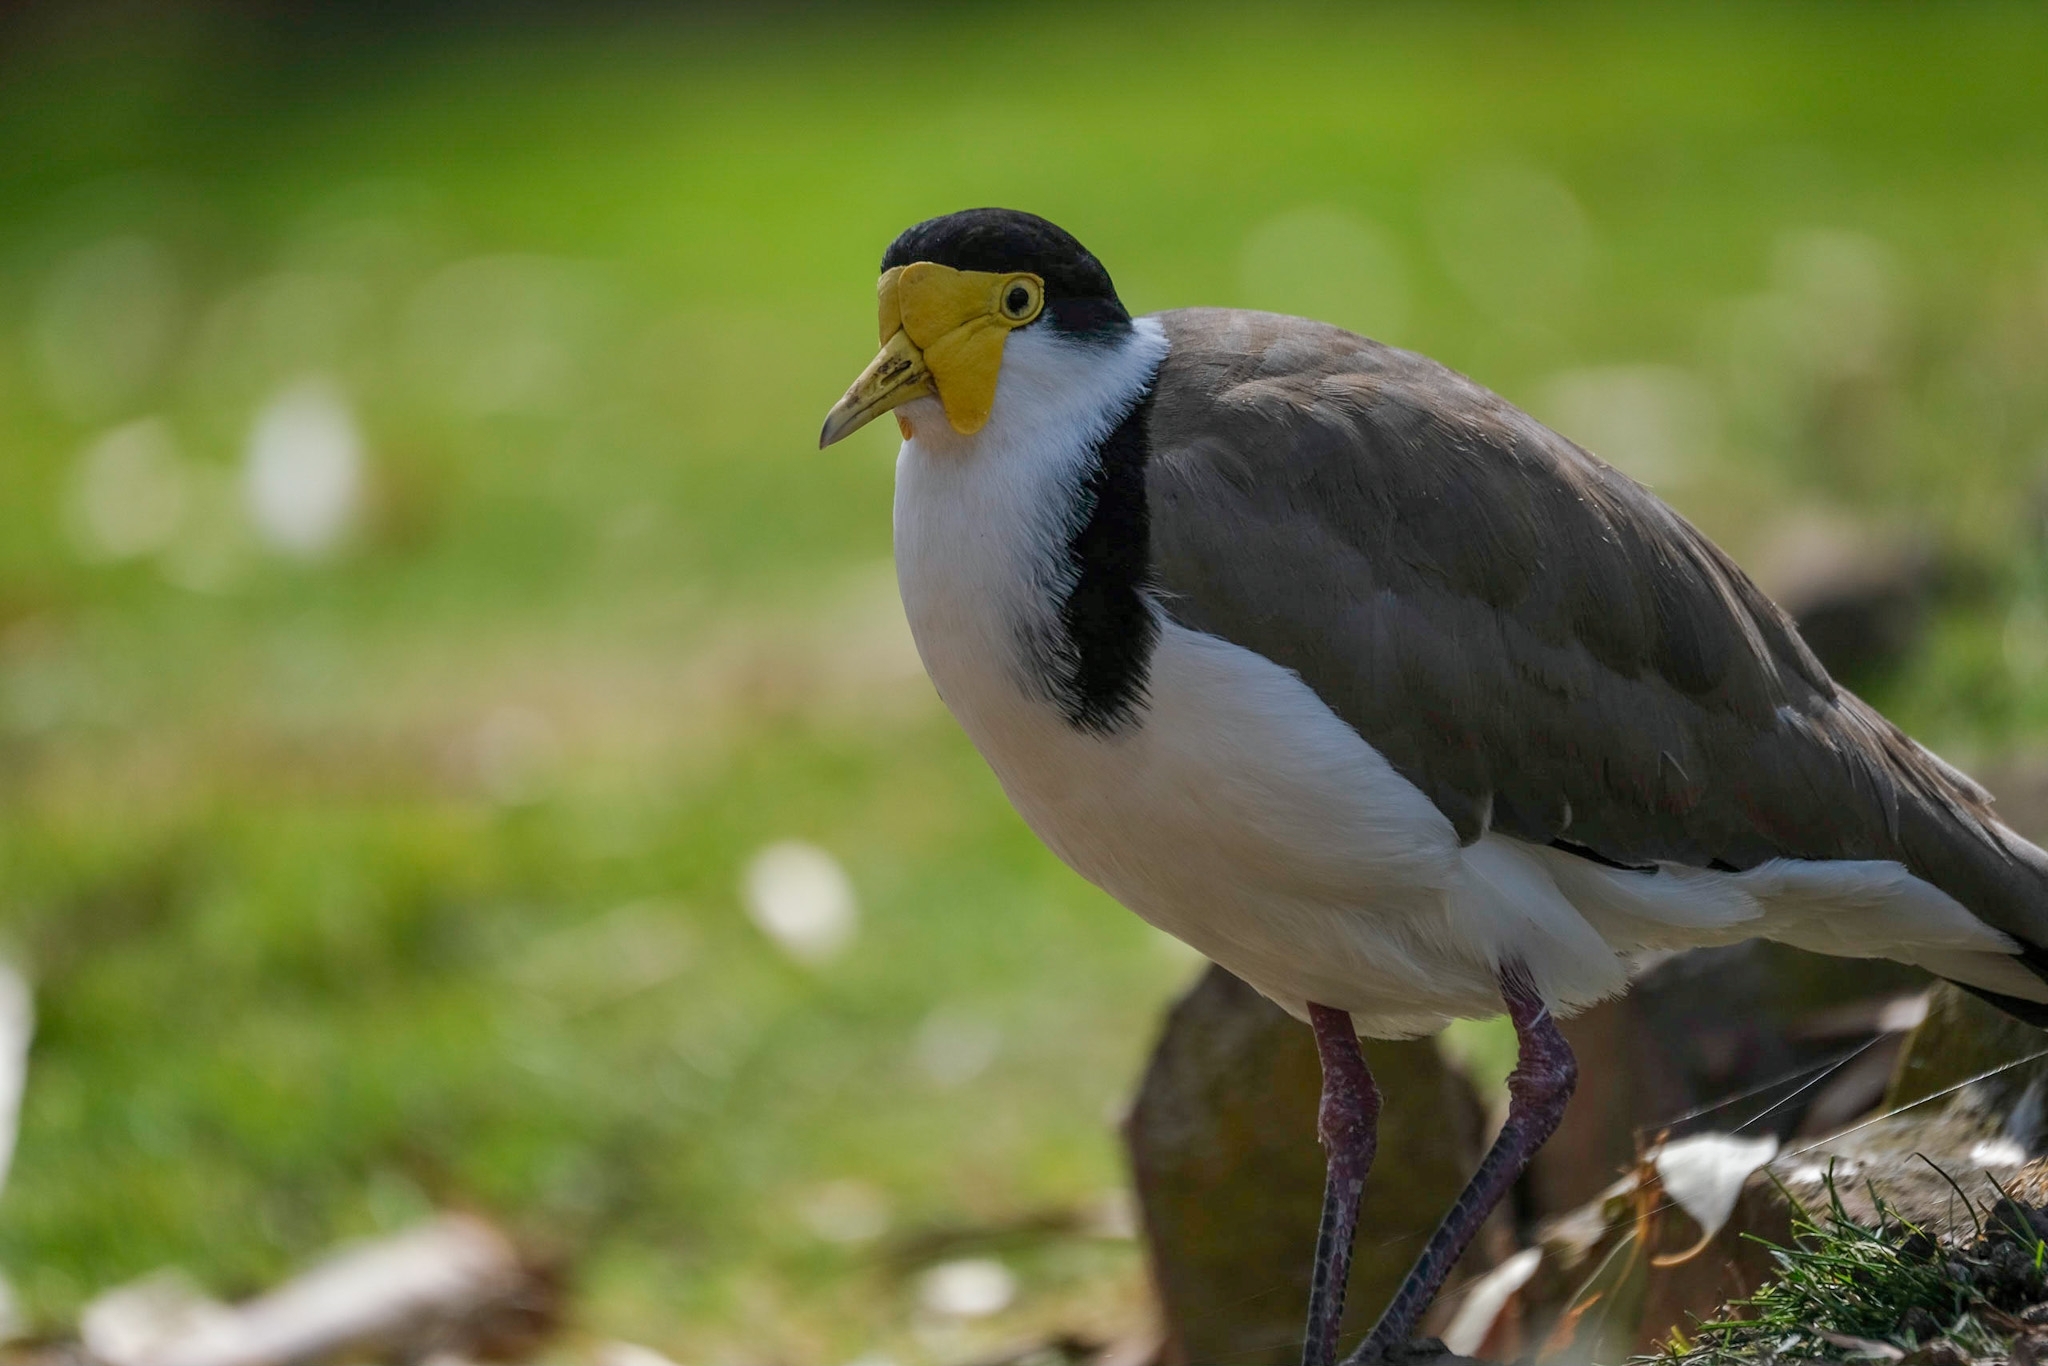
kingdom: Animalia
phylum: Chordata
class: Aves
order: Charadriiformes
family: Charadriidae
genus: Vanellus
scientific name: Vanellus miles
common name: Masked lapwing
